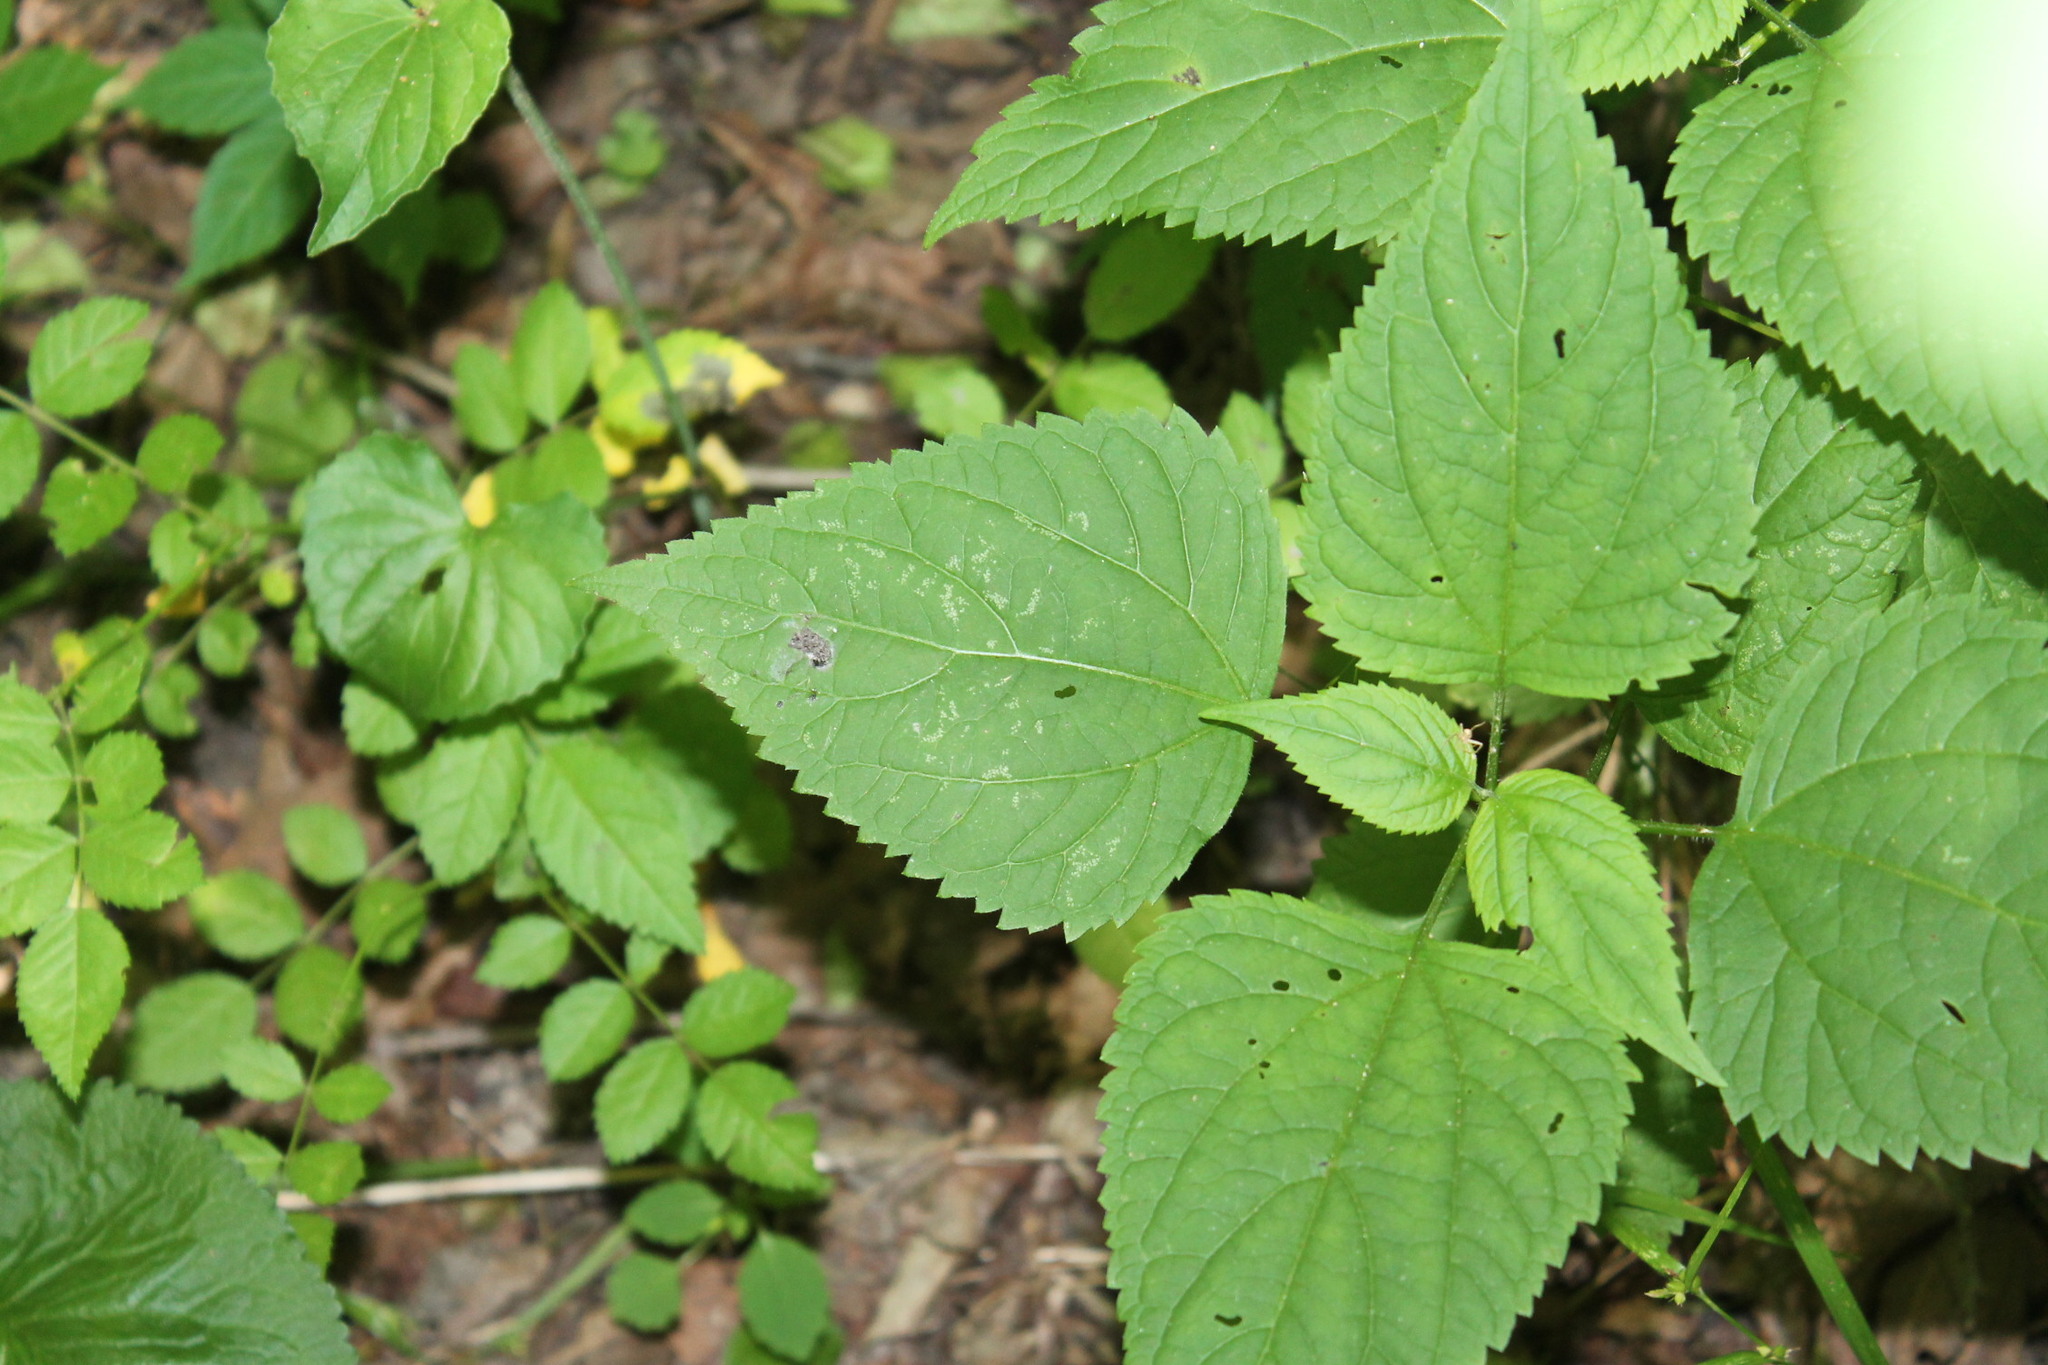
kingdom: Plantae
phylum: Tracheophyta
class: Magnoliopsida
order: Rosales
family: Urticaceae
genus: Laportea
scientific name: Laportea canadensis
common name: Canada nettle
